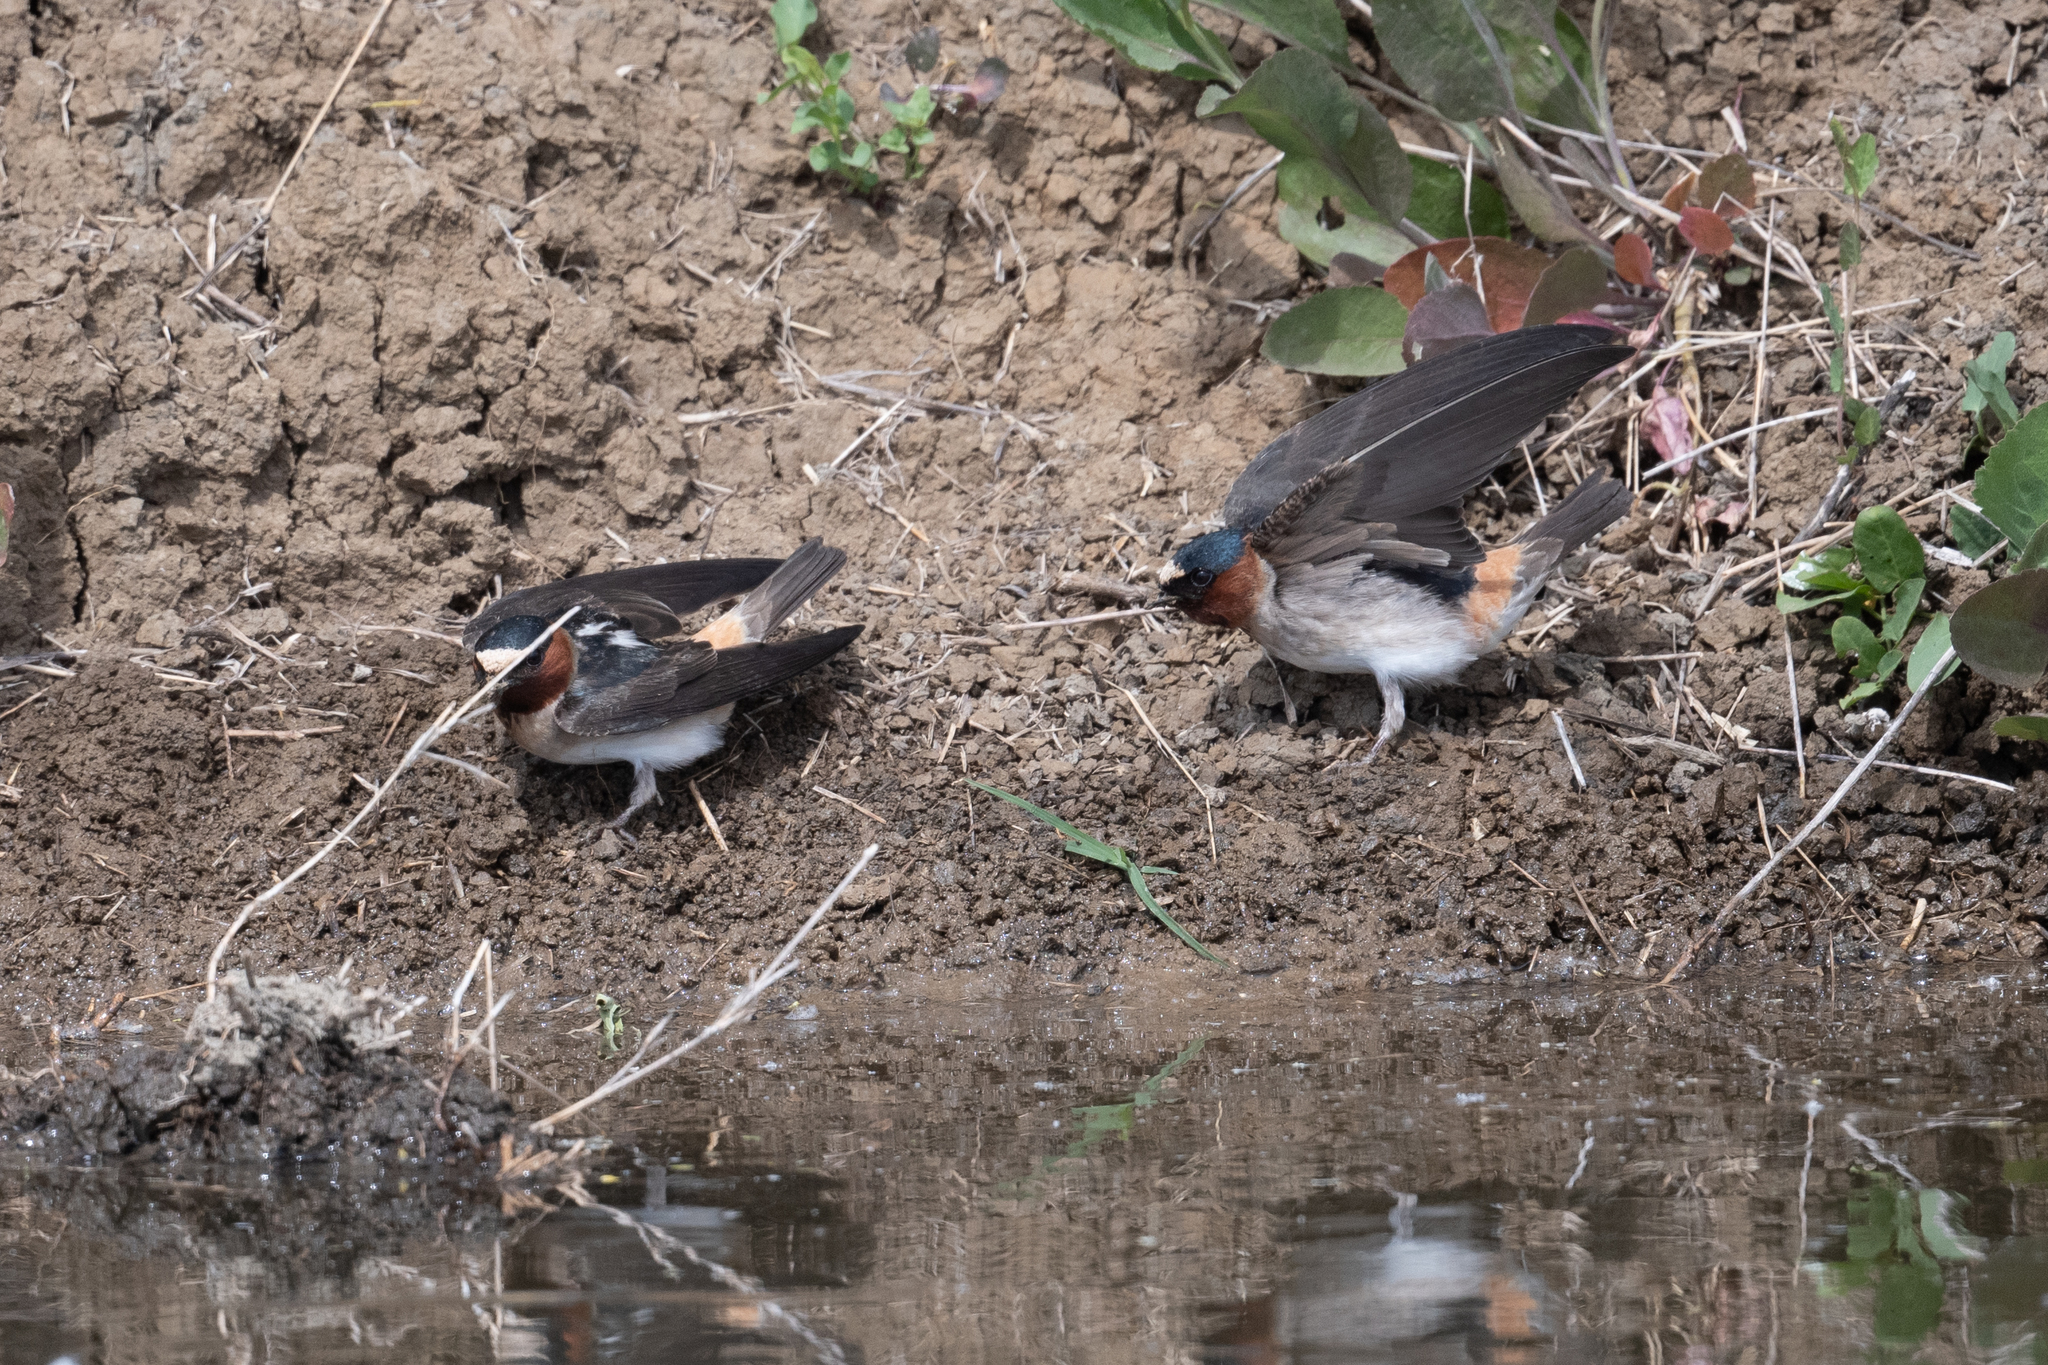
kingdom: Animalia
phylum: Chordata
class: Aves
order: Passeriformes
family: Hirundinidae
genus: Petrochelidon
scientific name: Petrochelidon pyrrhonota
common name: American cliff swallow
